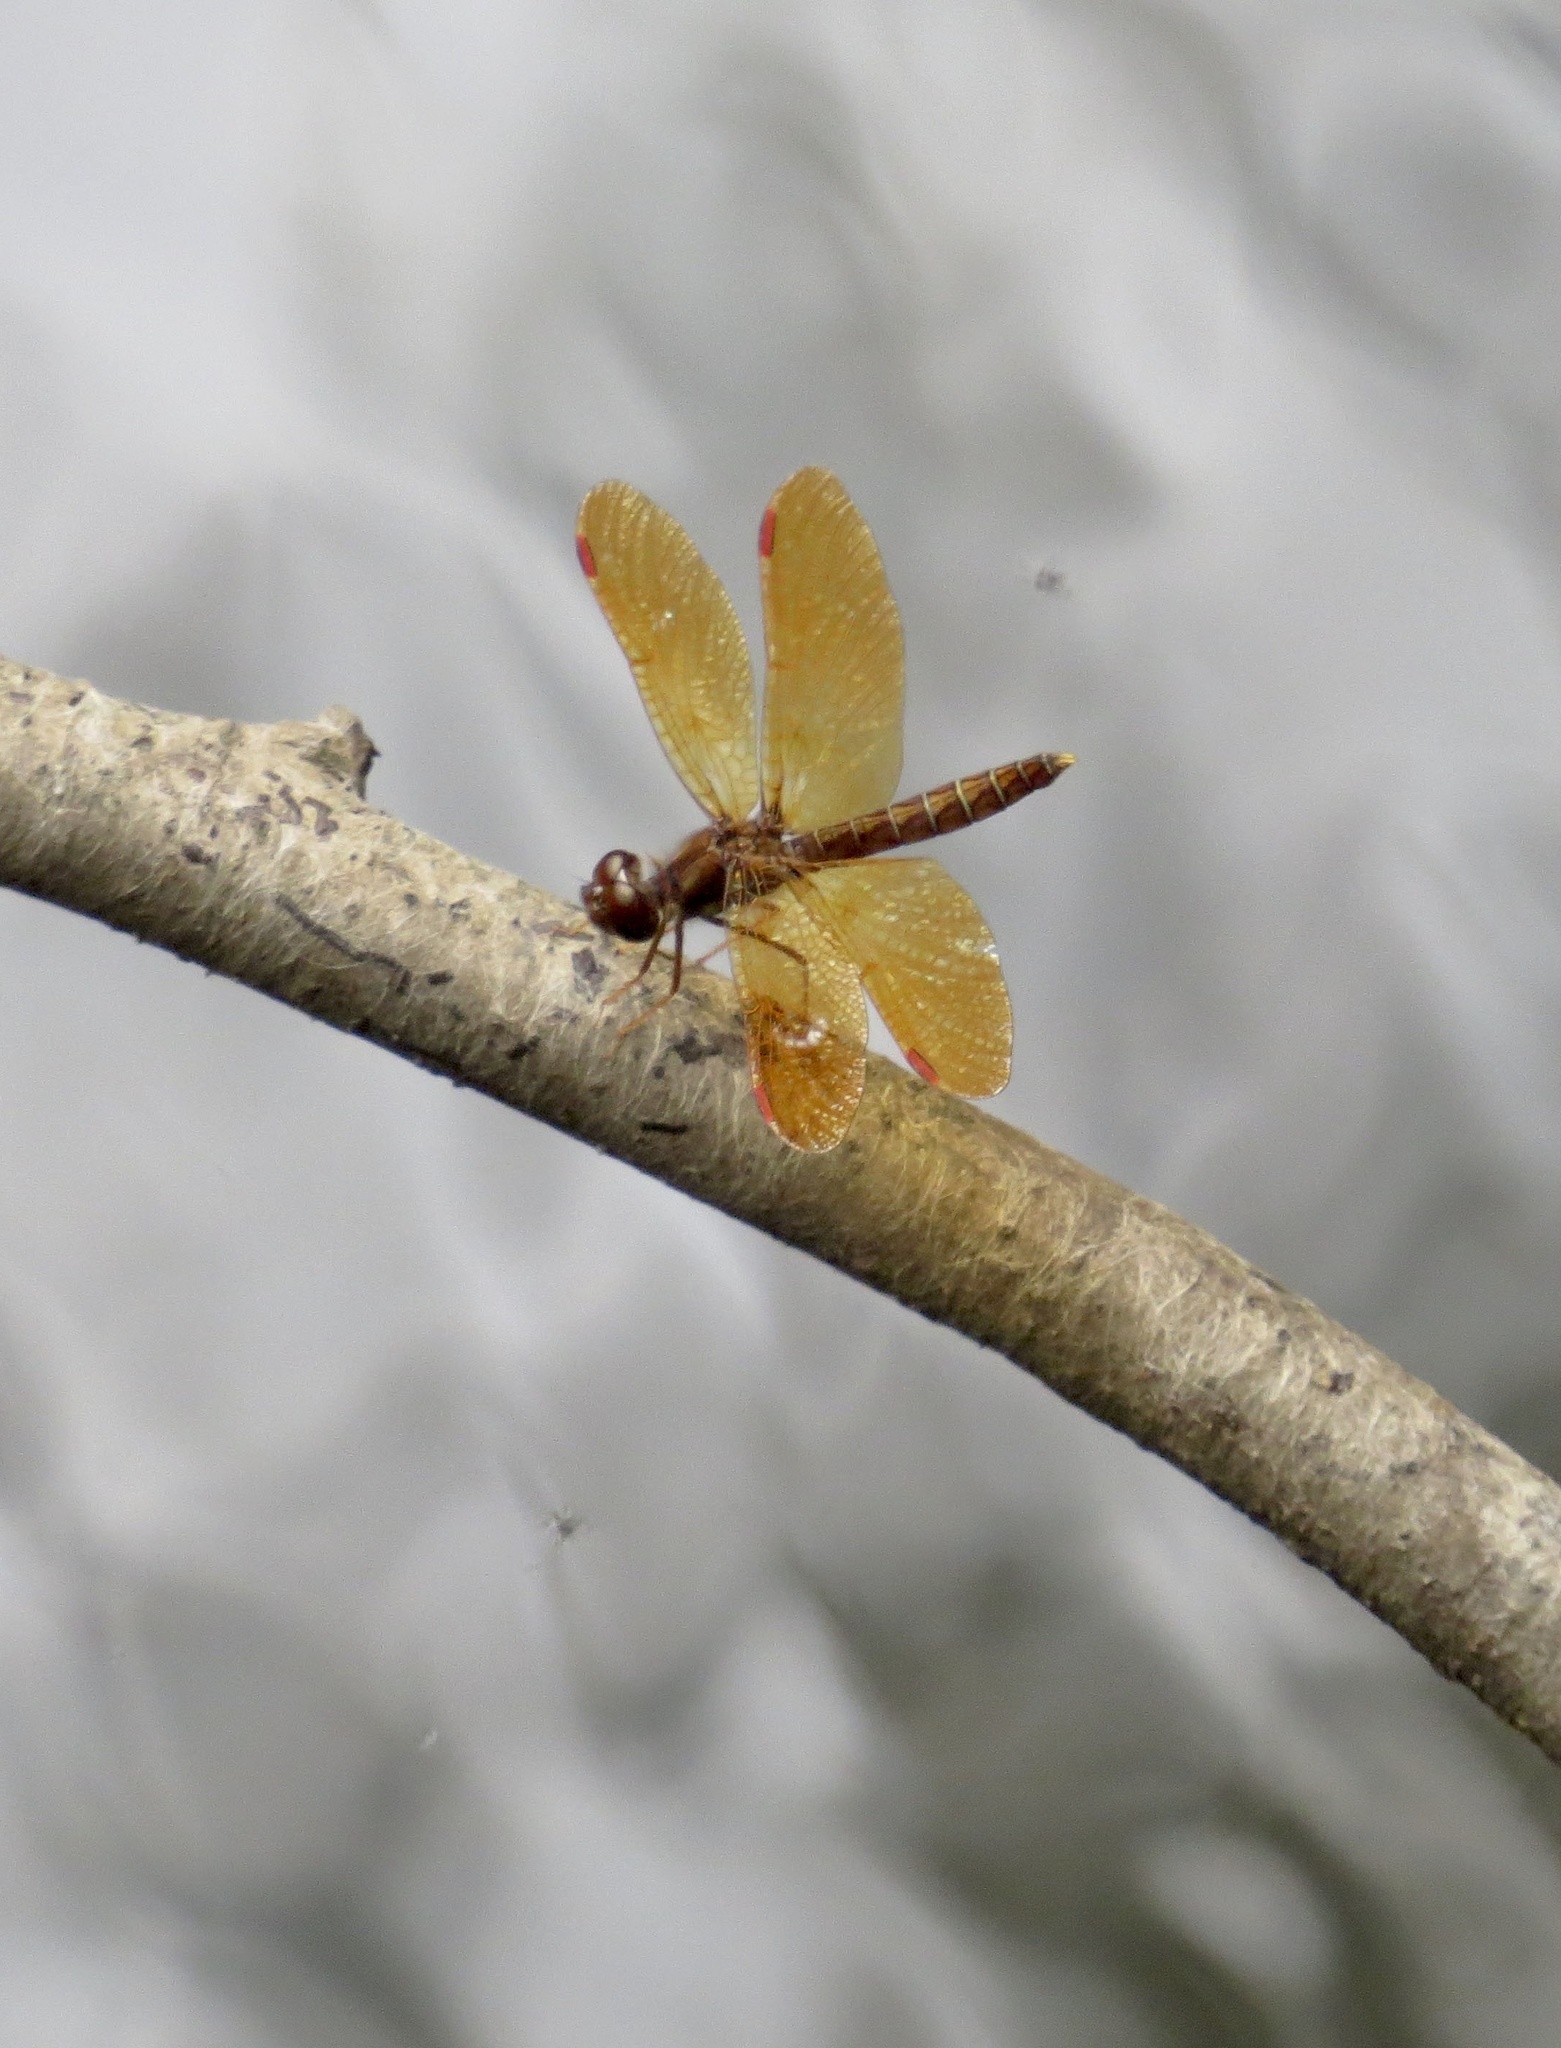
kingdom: Animalia
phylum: Arthropoda
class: Insecta
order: Odonata
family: Libellulidae
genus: Perithemis
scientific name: Perithemis tenera
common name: Eastern amberwing
